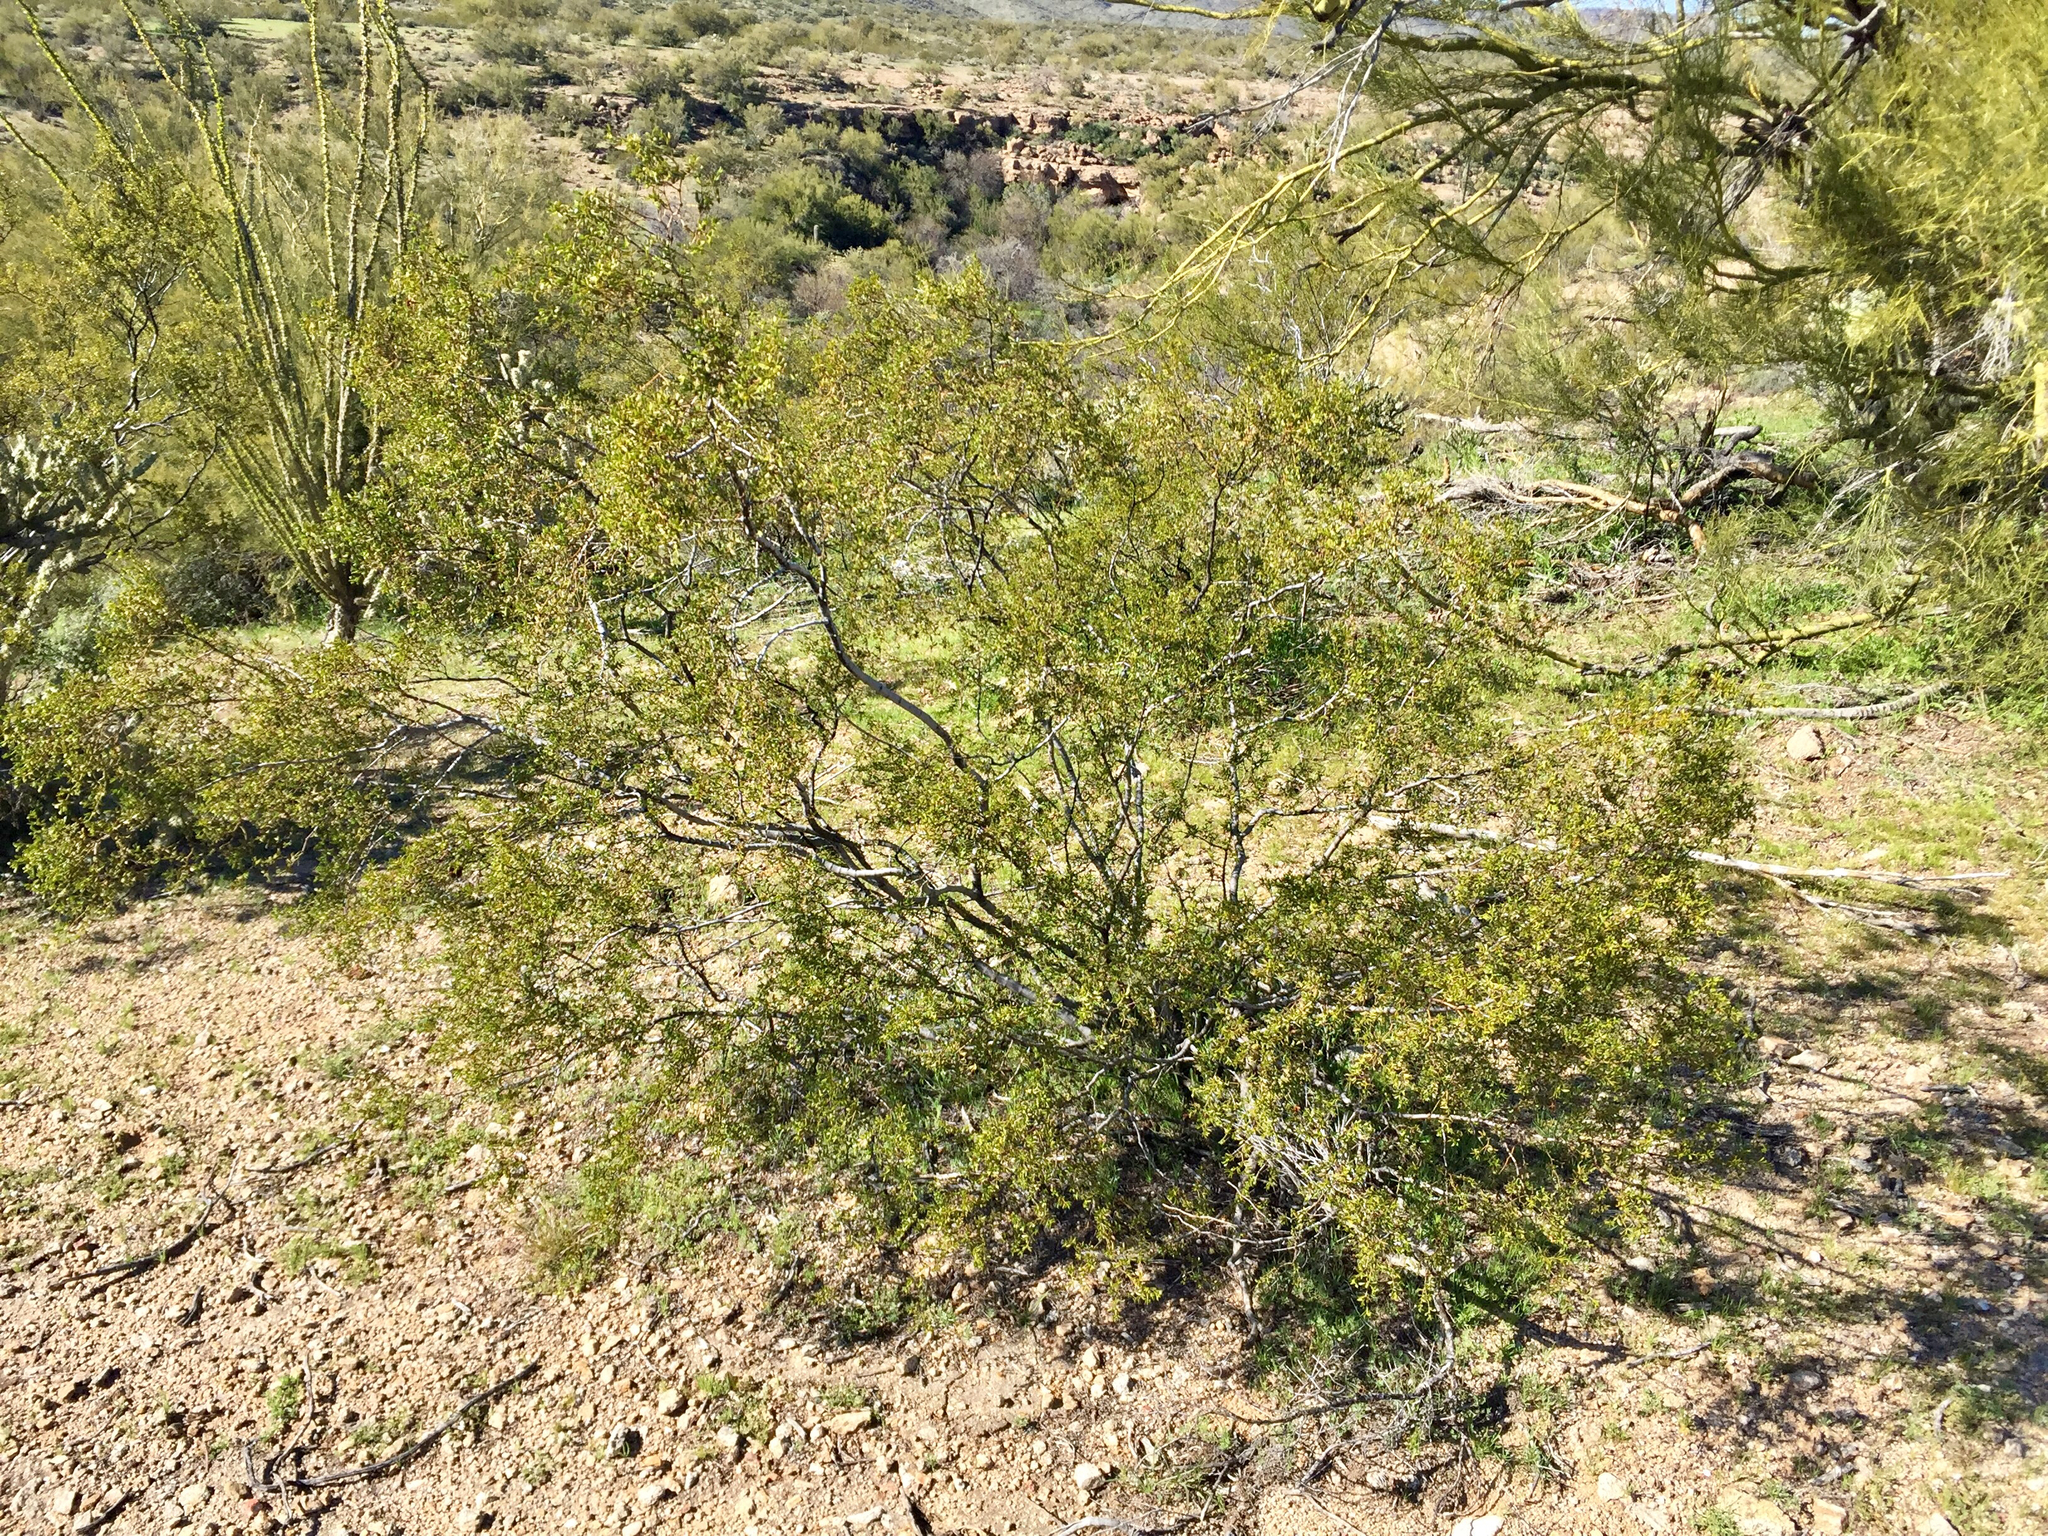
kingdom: Plantae
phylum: Tracheophyta
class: Magnoliopsida
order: Zygophyllales
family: Zygophyllaceae
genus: Larrea
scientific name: Larrea tridentata
